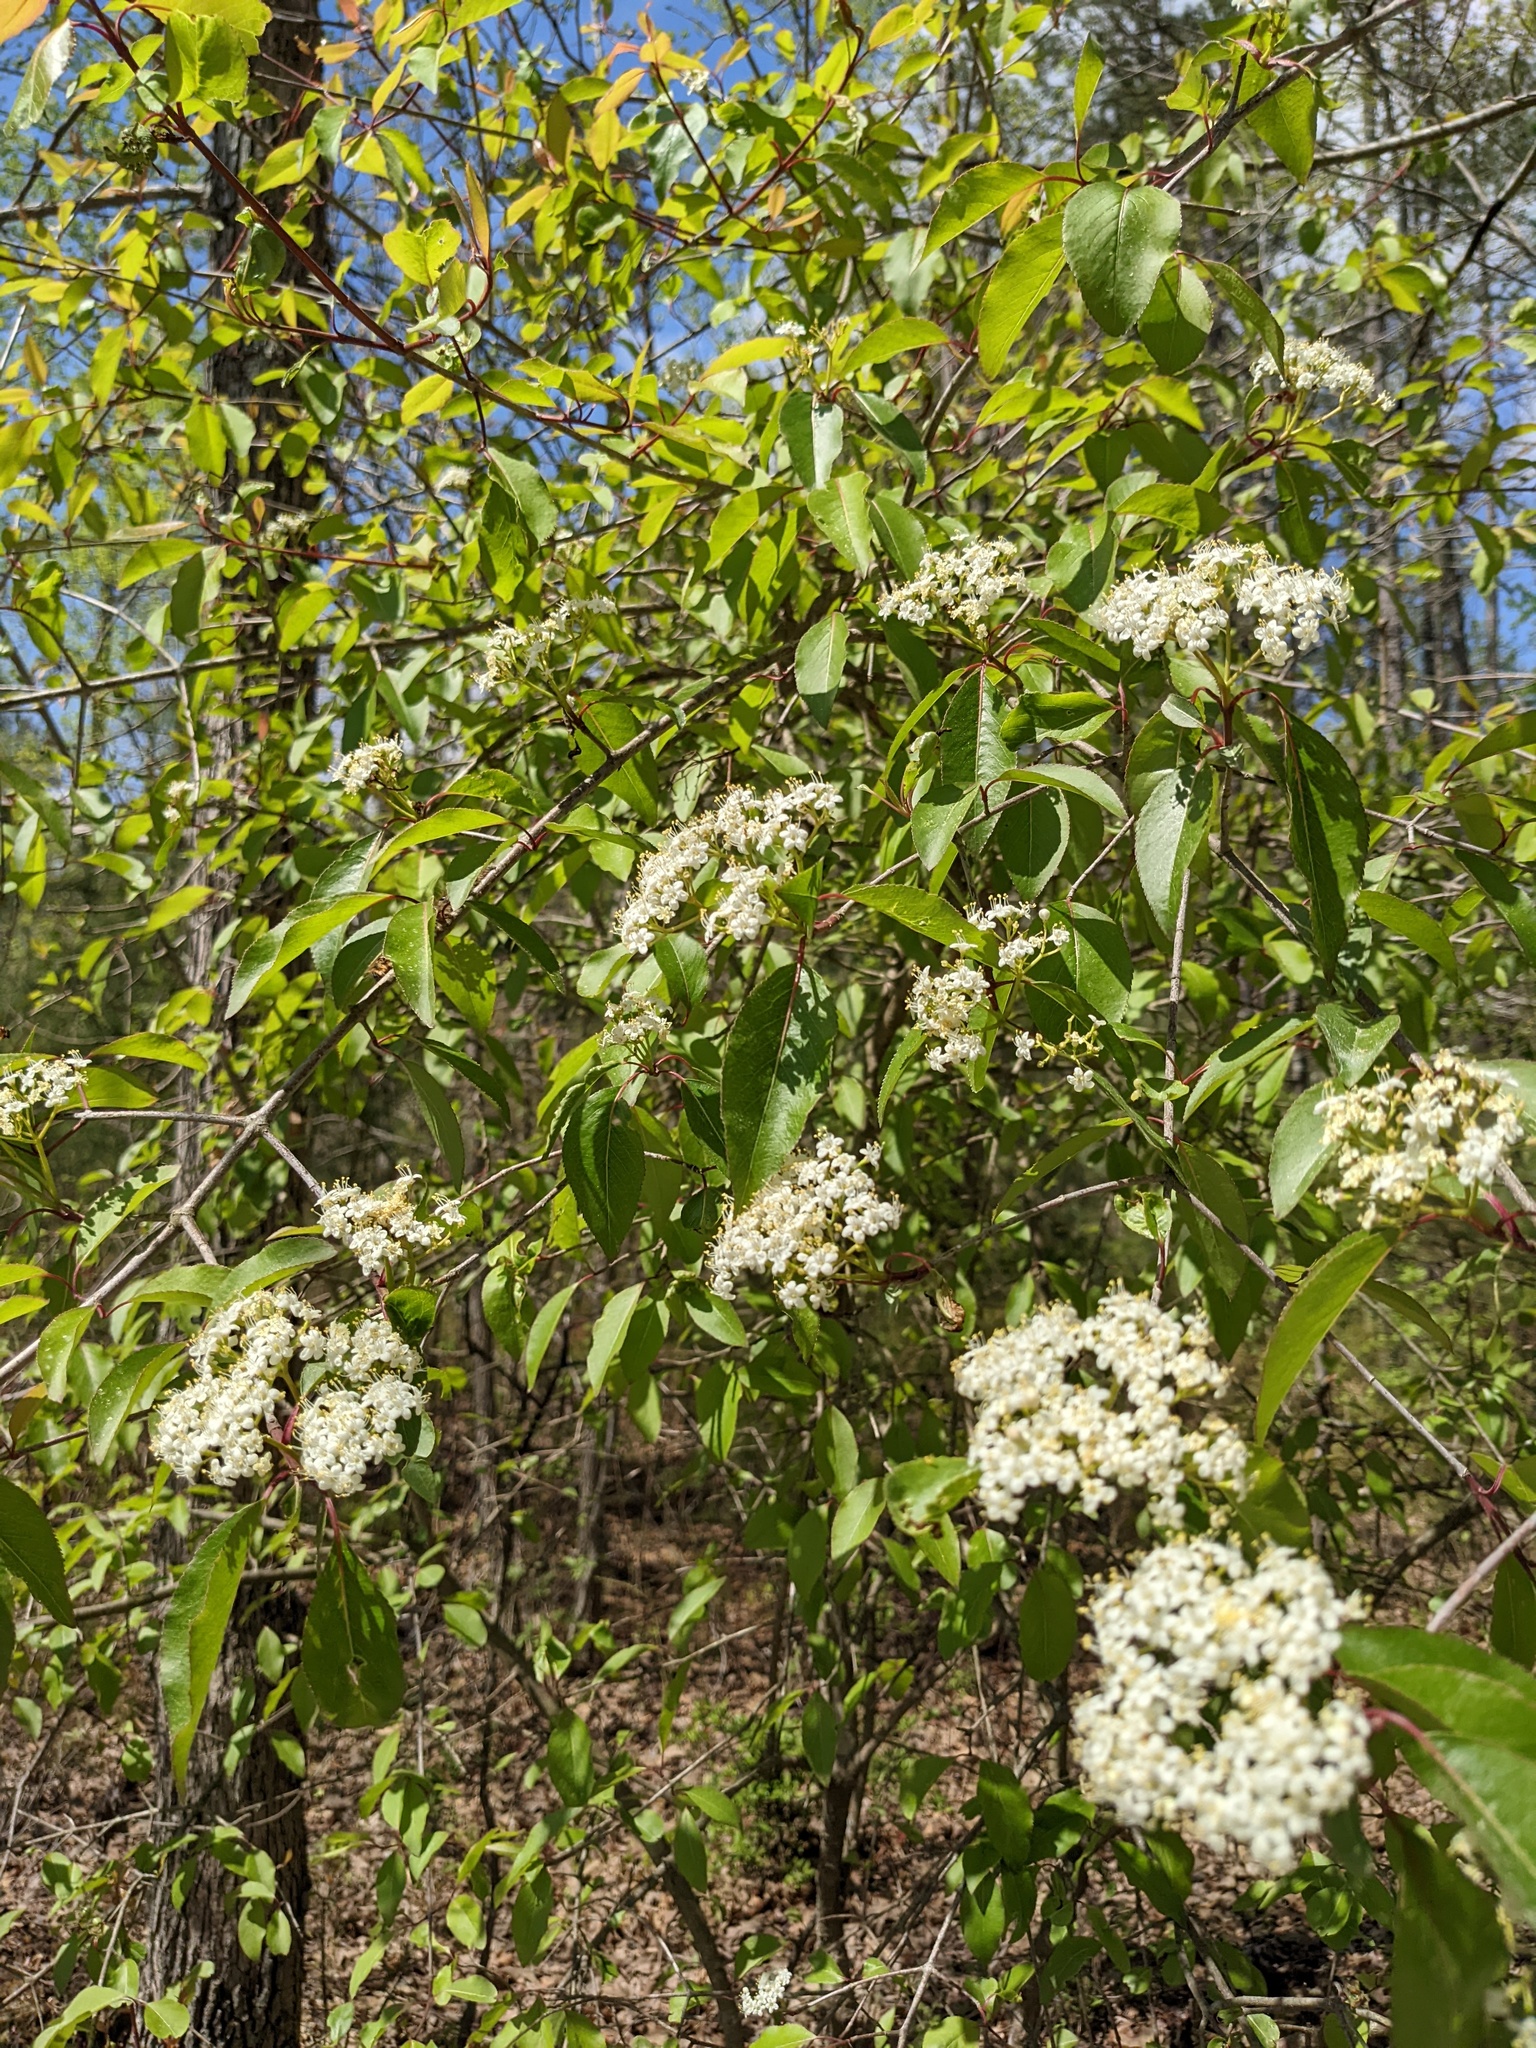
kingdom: Plantae
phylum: Tracheophyta
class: Magnoliopsida
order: Dipsacales
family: Viburnaceae
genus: Viburnum
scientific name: Viburnum prunifolium
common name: Black haw
